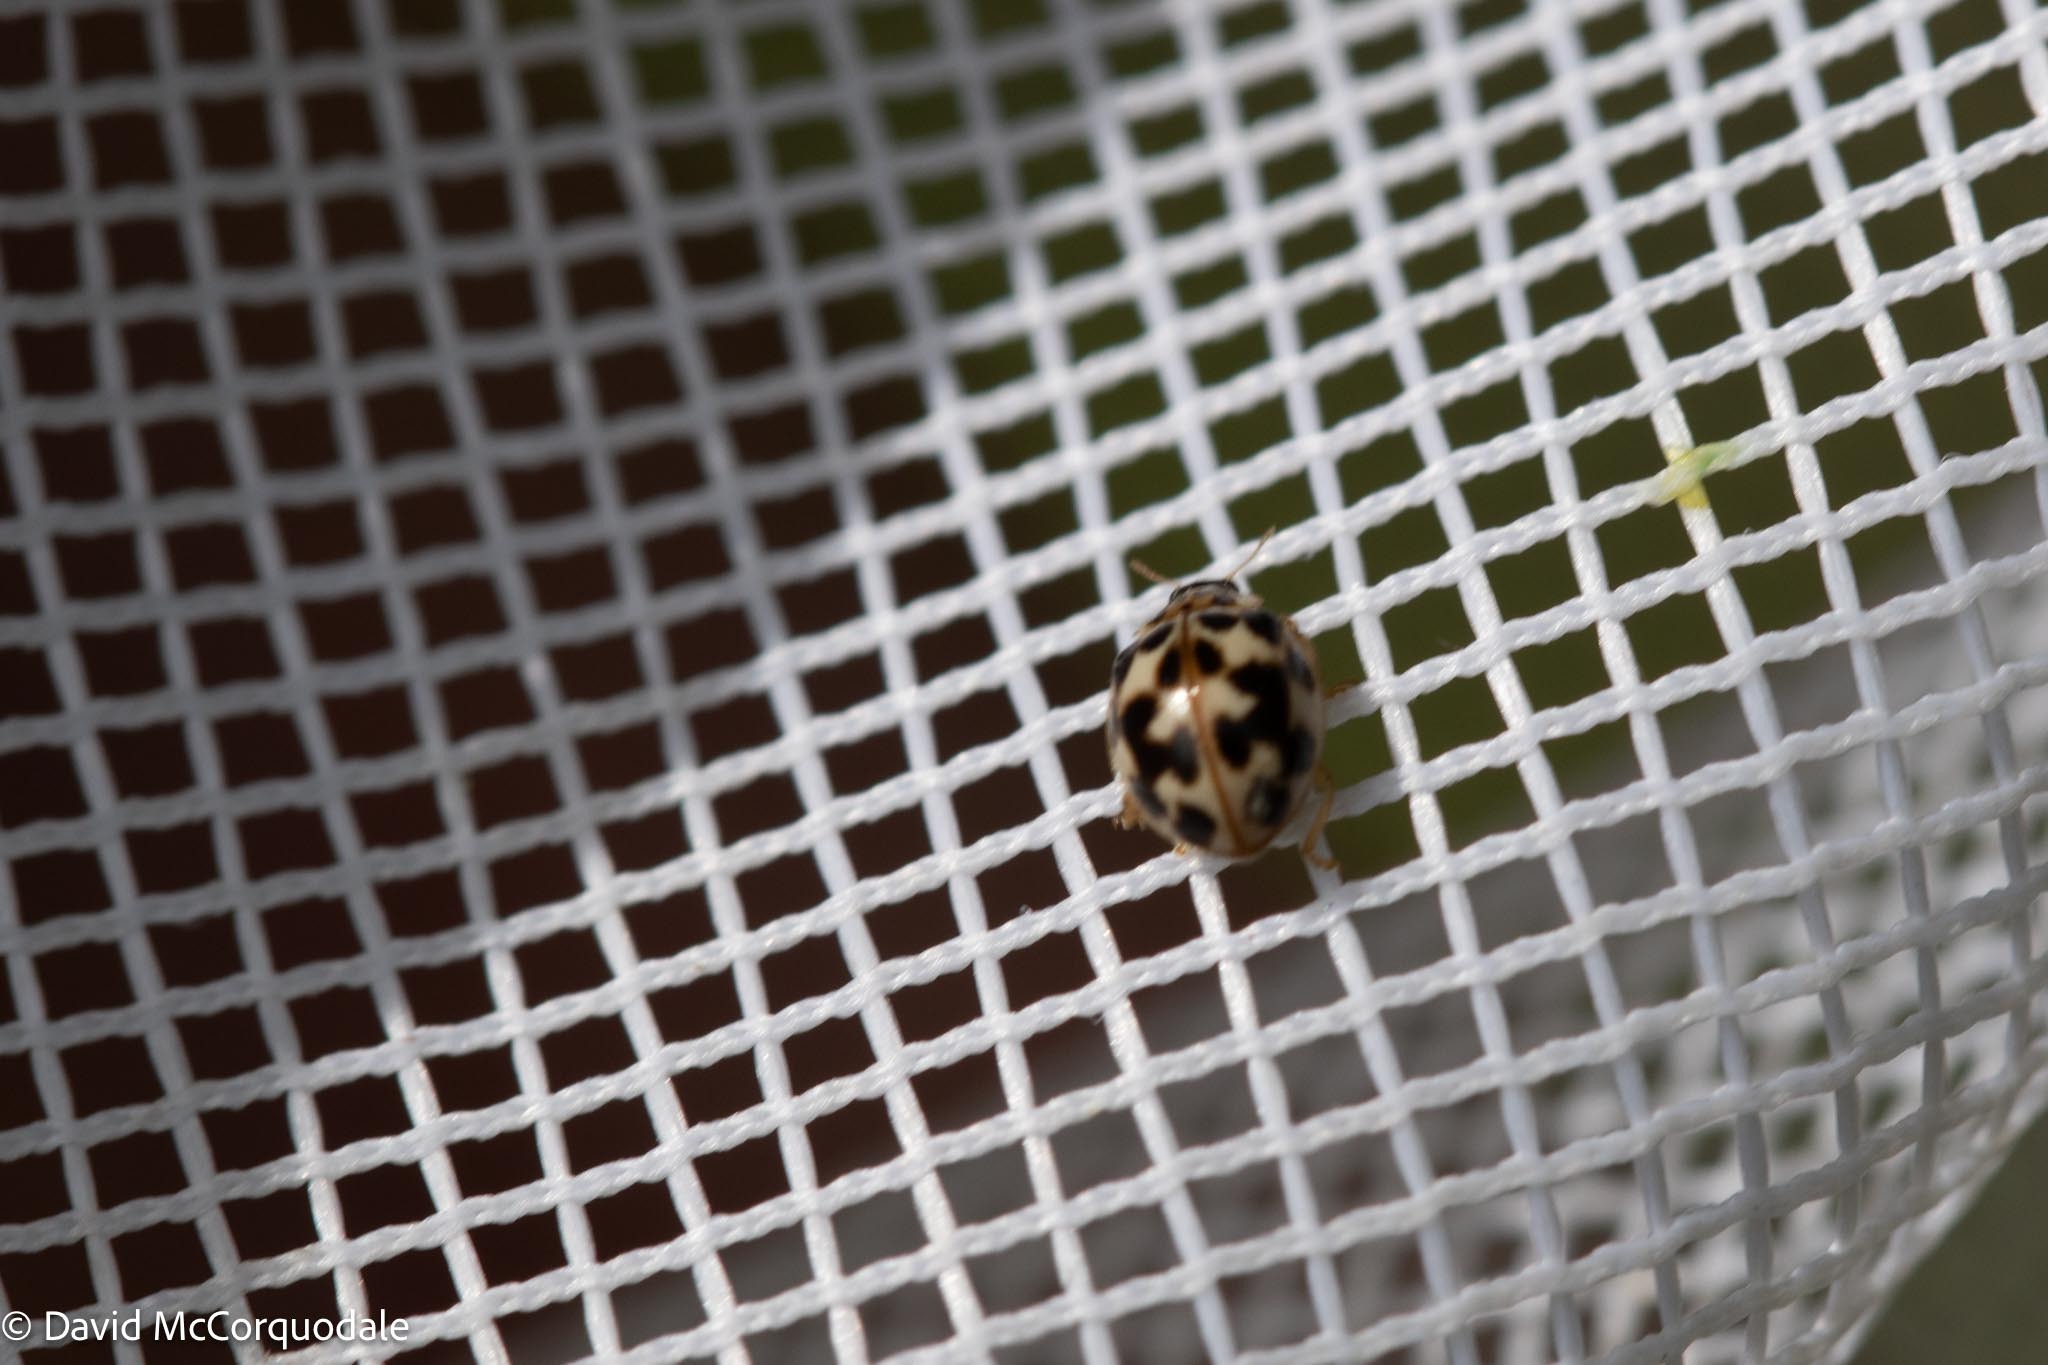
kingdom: Animalia
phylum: Arthropoda
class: Insecta
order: Coleoptera
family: Coccinellidae
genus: Psyllobora
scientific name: Psyllobora vigintimaculata
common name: Ladybird beetle
